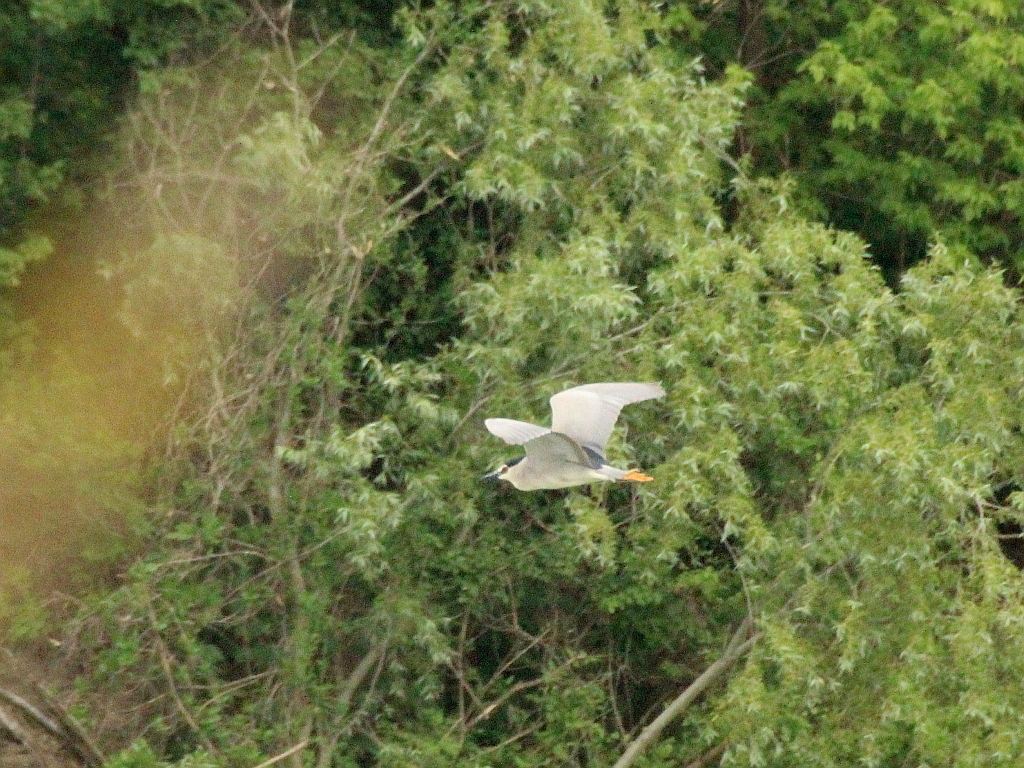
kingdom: Animalia
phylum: Chordata
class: Aves
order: Pelecaniformes
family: Ardeidae
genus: Nycticorax
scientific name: Nycticorax nycticorax
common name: Black-crowned night heron
